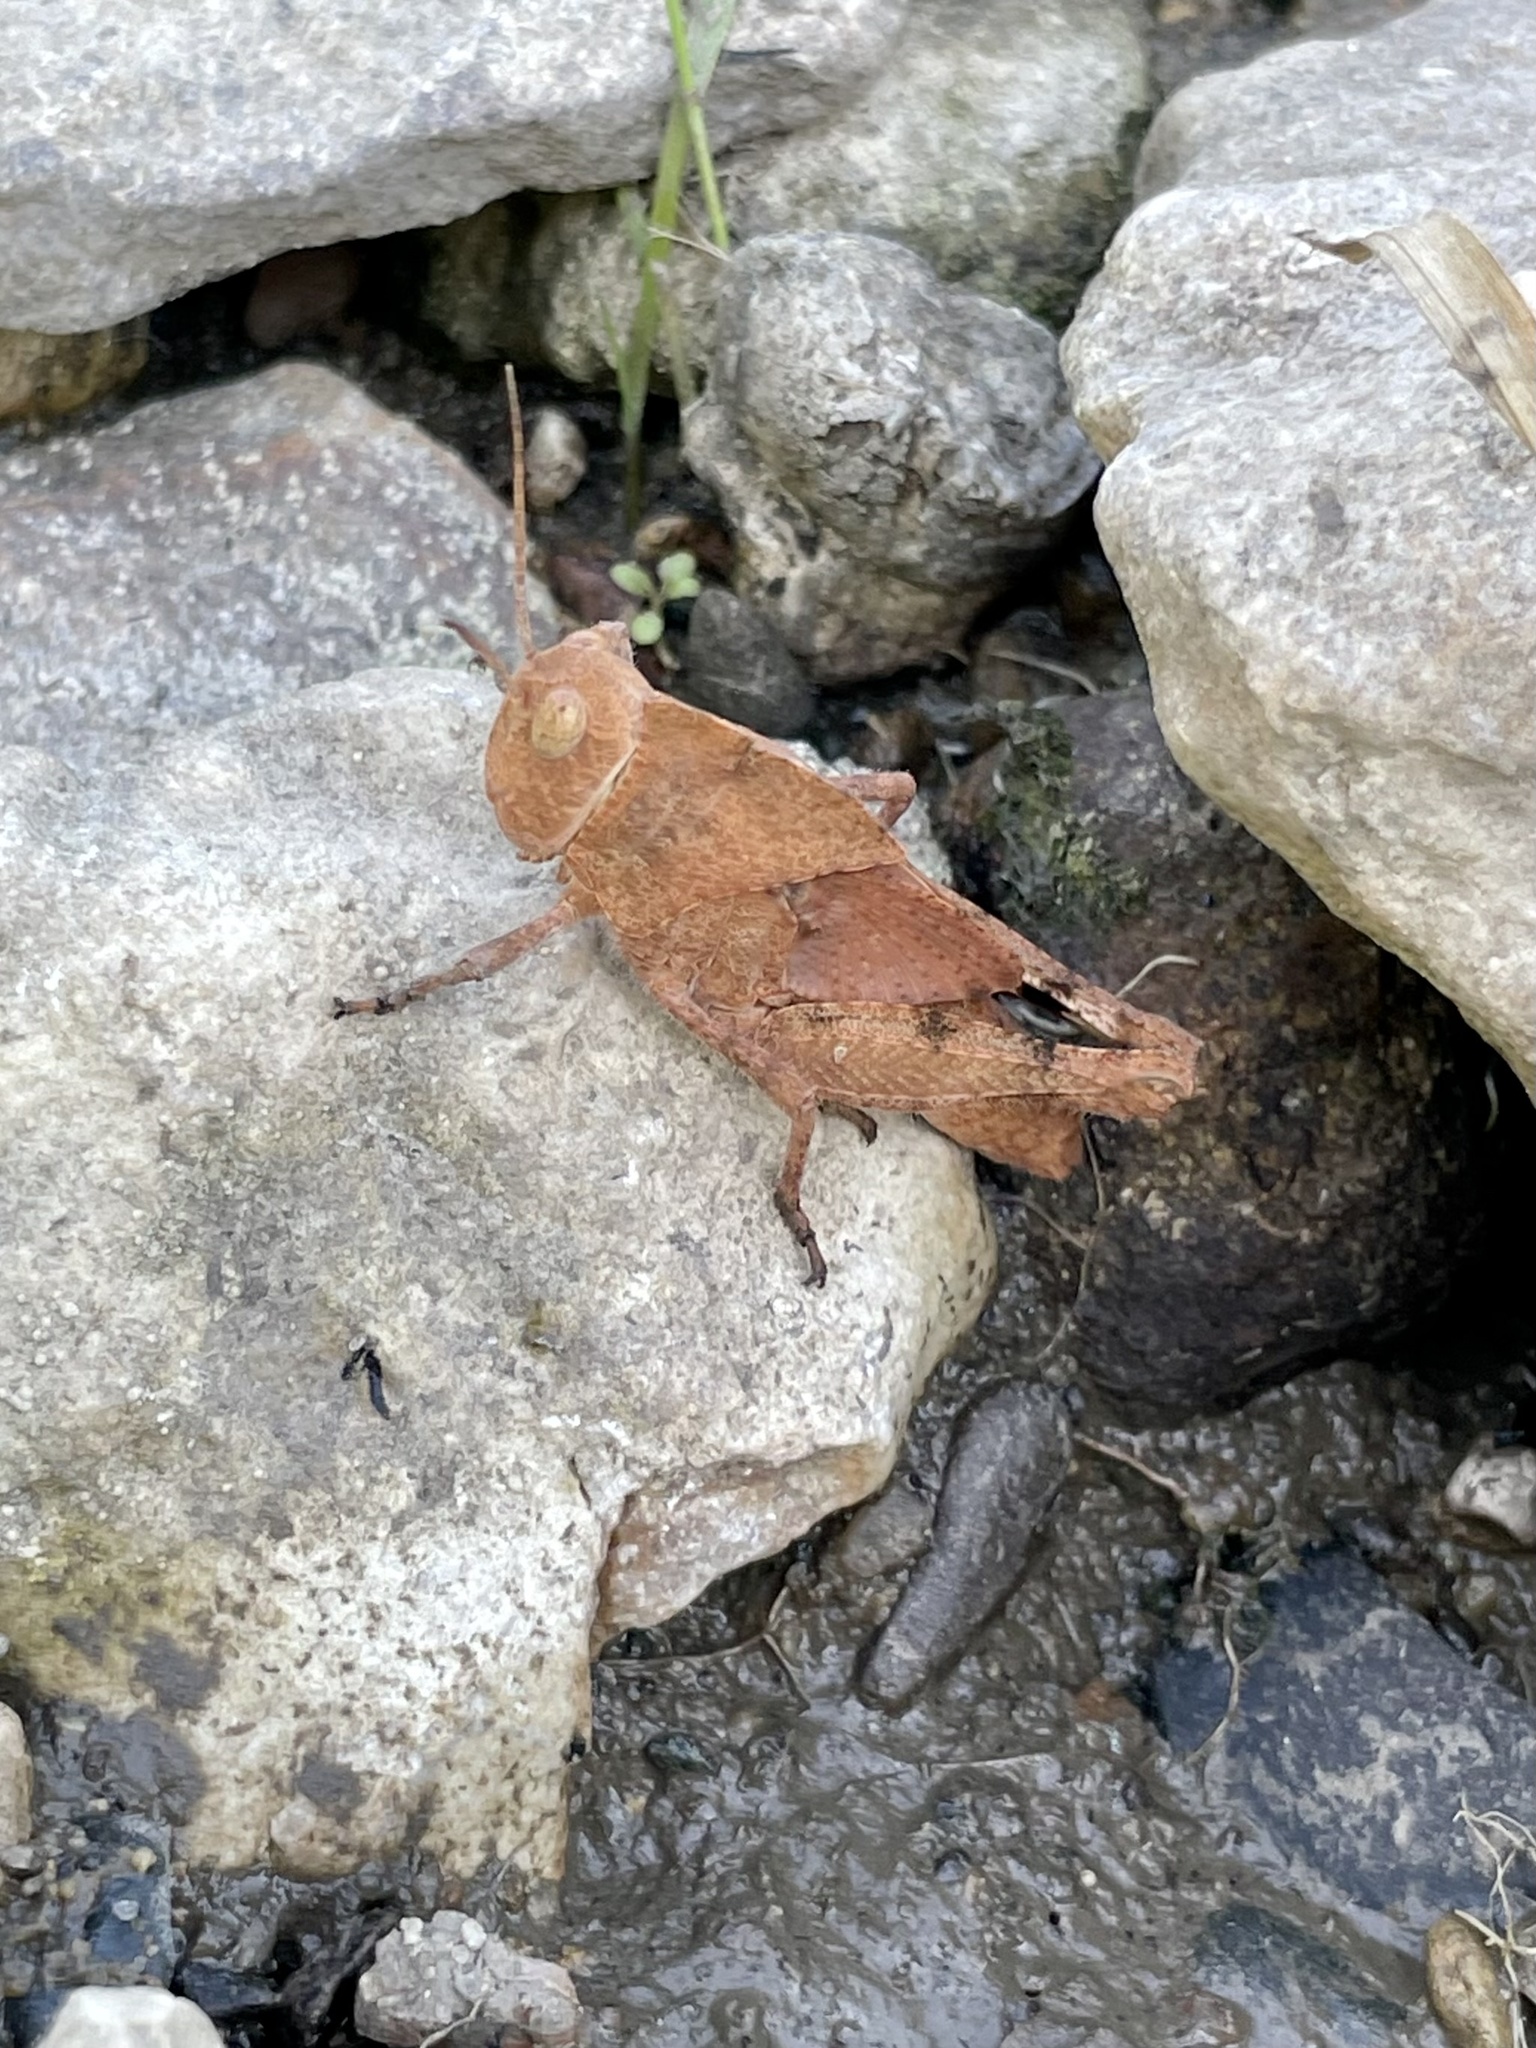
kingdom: Animalia
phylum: Arthropoda
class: Insecta
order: Orthoptera
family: Acrididae
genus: Dissosteira
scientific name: Dissosteira carolina
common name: Carolina grasshopper
